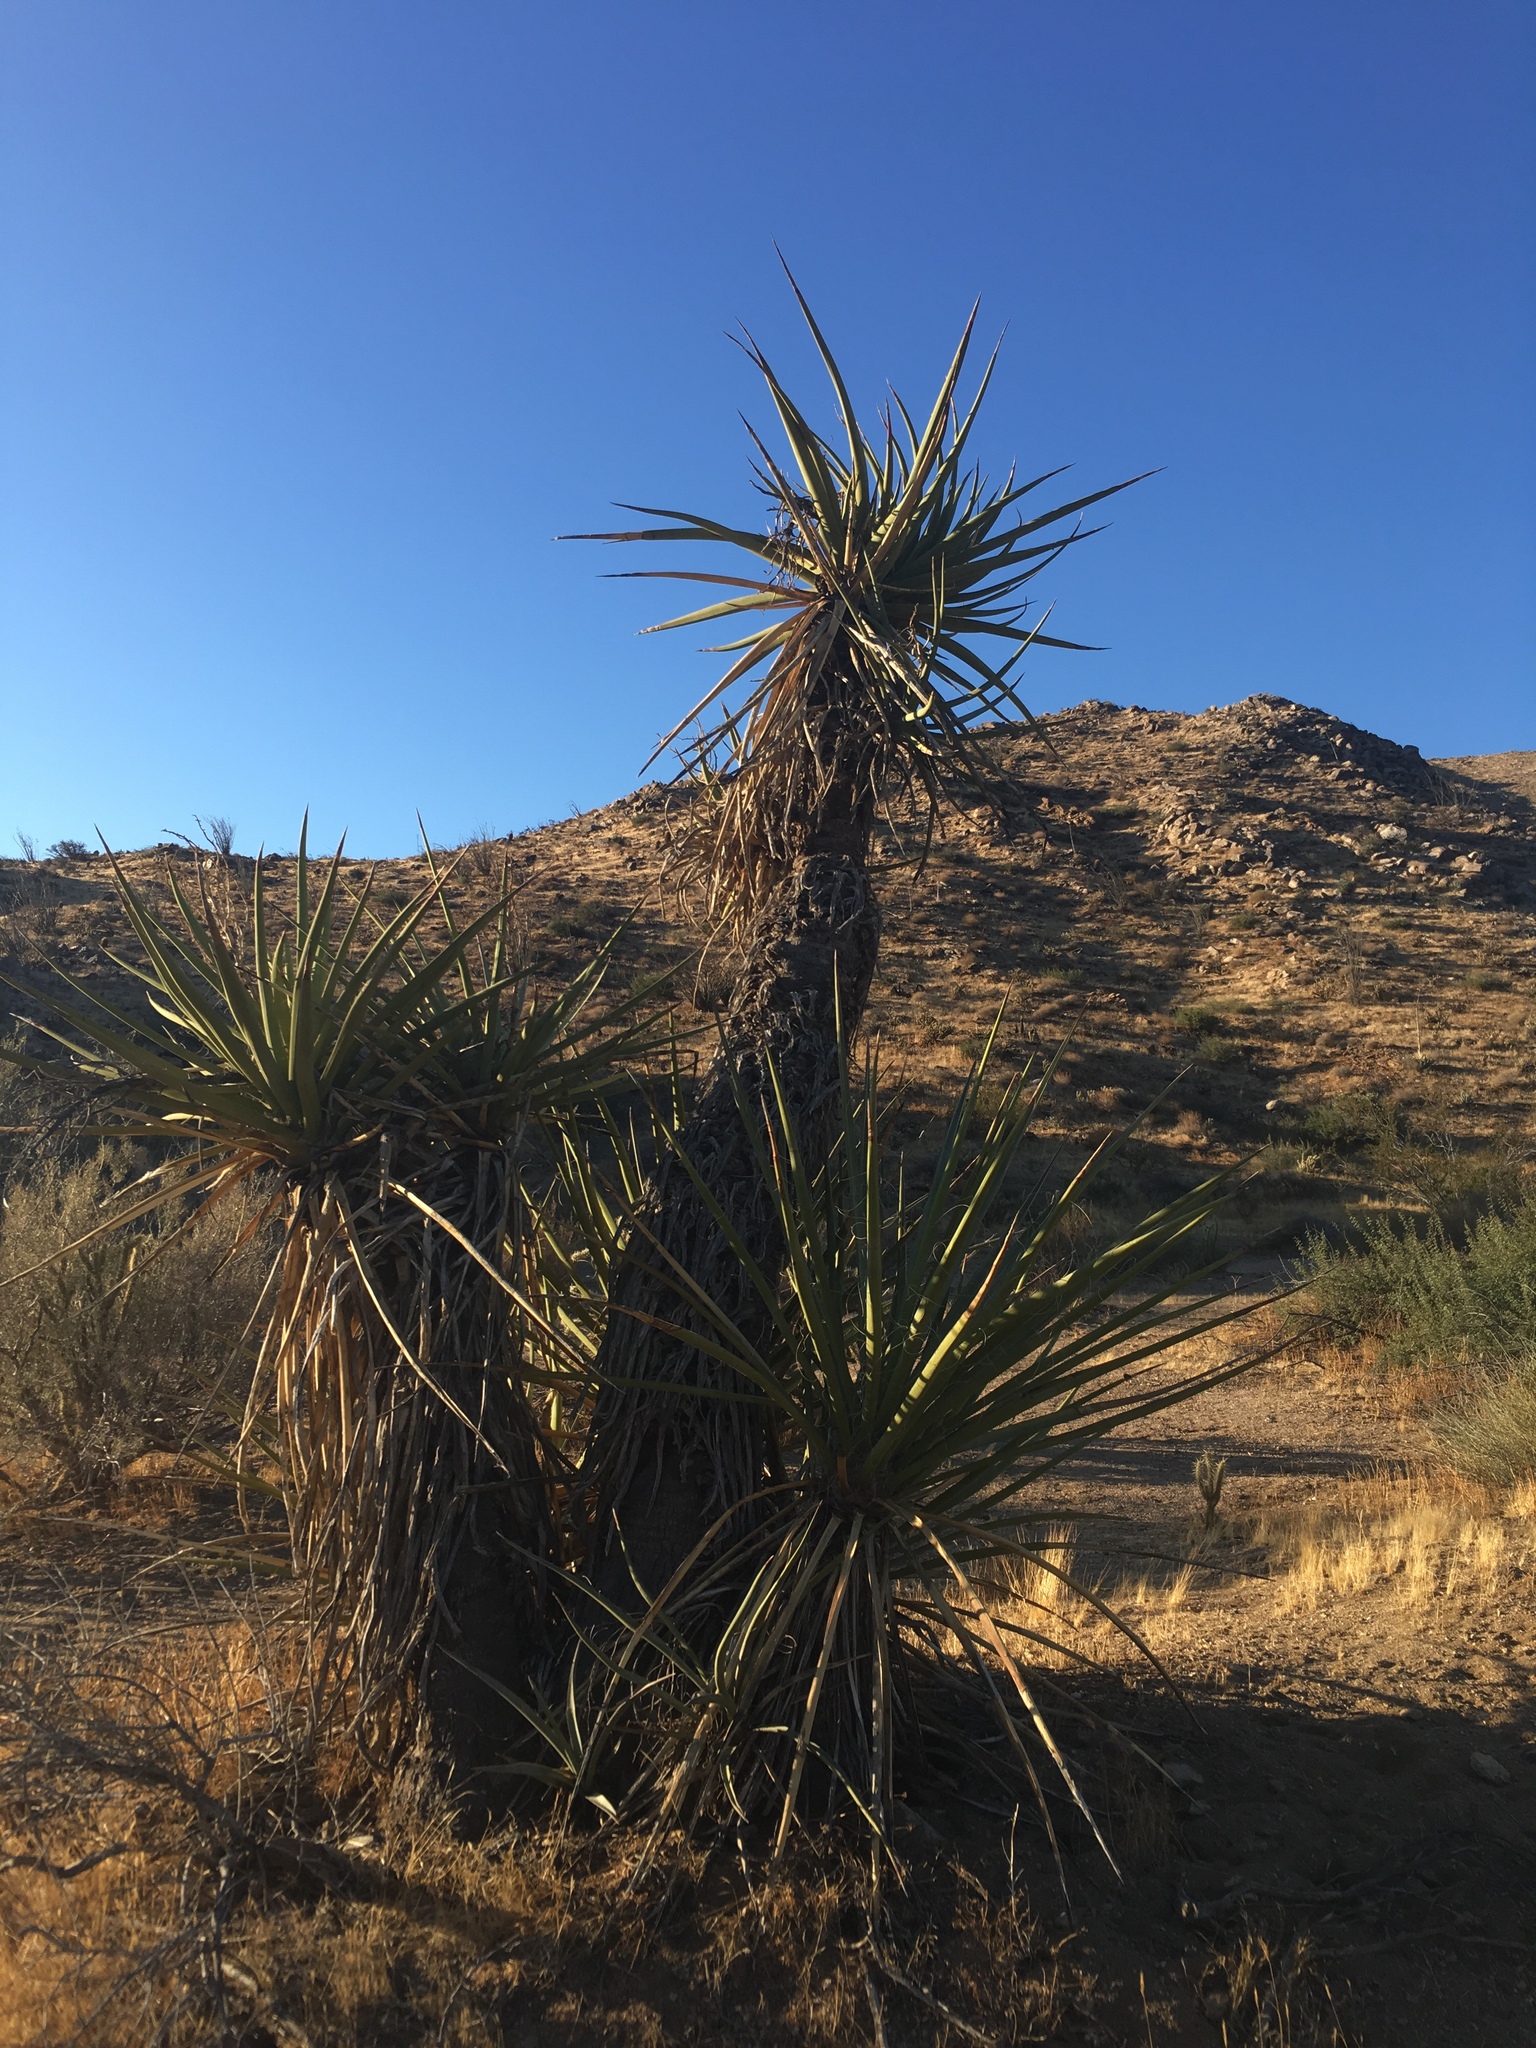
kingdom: Plantae
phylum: Tracheophyta
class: Liliopsida
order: Asparagales
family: Asparagaceae
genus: Yucca
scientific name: Yucca schidigera
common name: Mojave yucca
